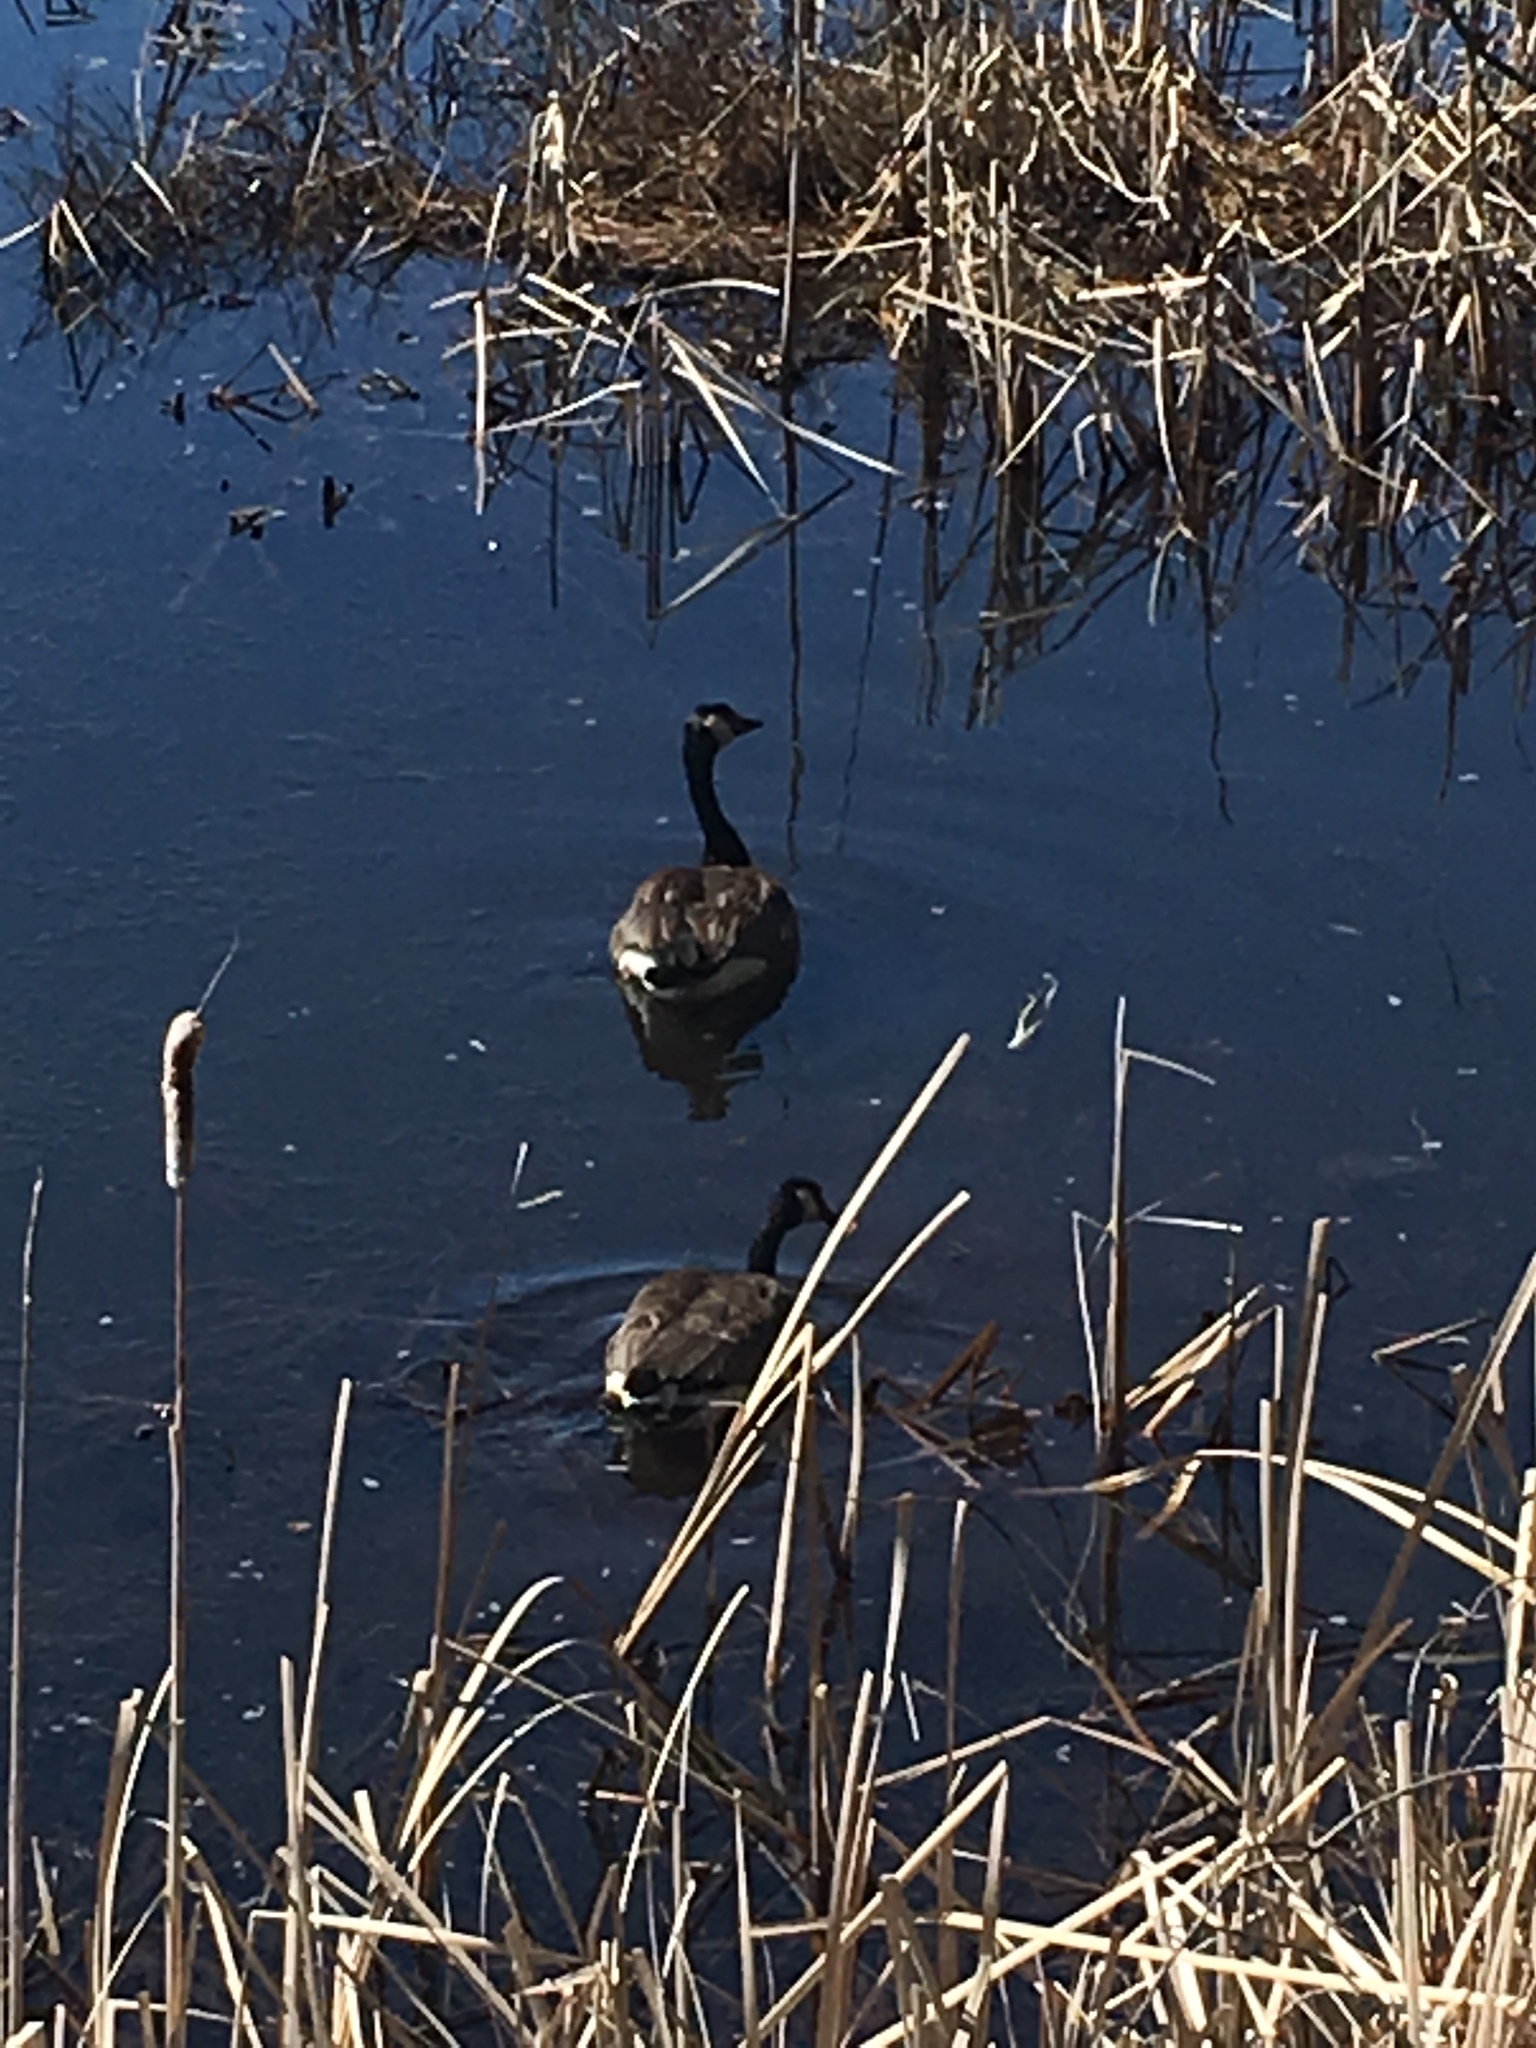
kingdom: Animalia
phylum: Chordata
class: Aves
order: Anseriformes
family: Anatidae
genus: Branta
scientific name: Branta canadensis
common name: Canada goose
